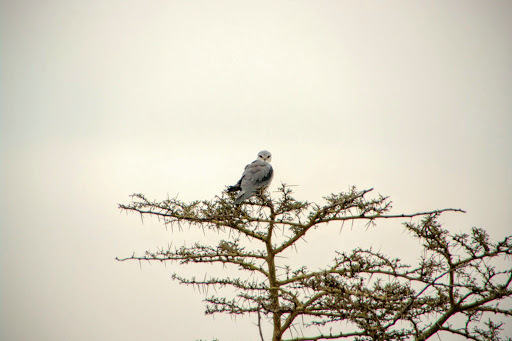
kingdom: Animalia
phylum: Chordata
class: Aves
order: Accipitriformes
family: Accipitridae
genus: Elanus
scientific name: Elanus caeruleus
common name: Black-winged kite
